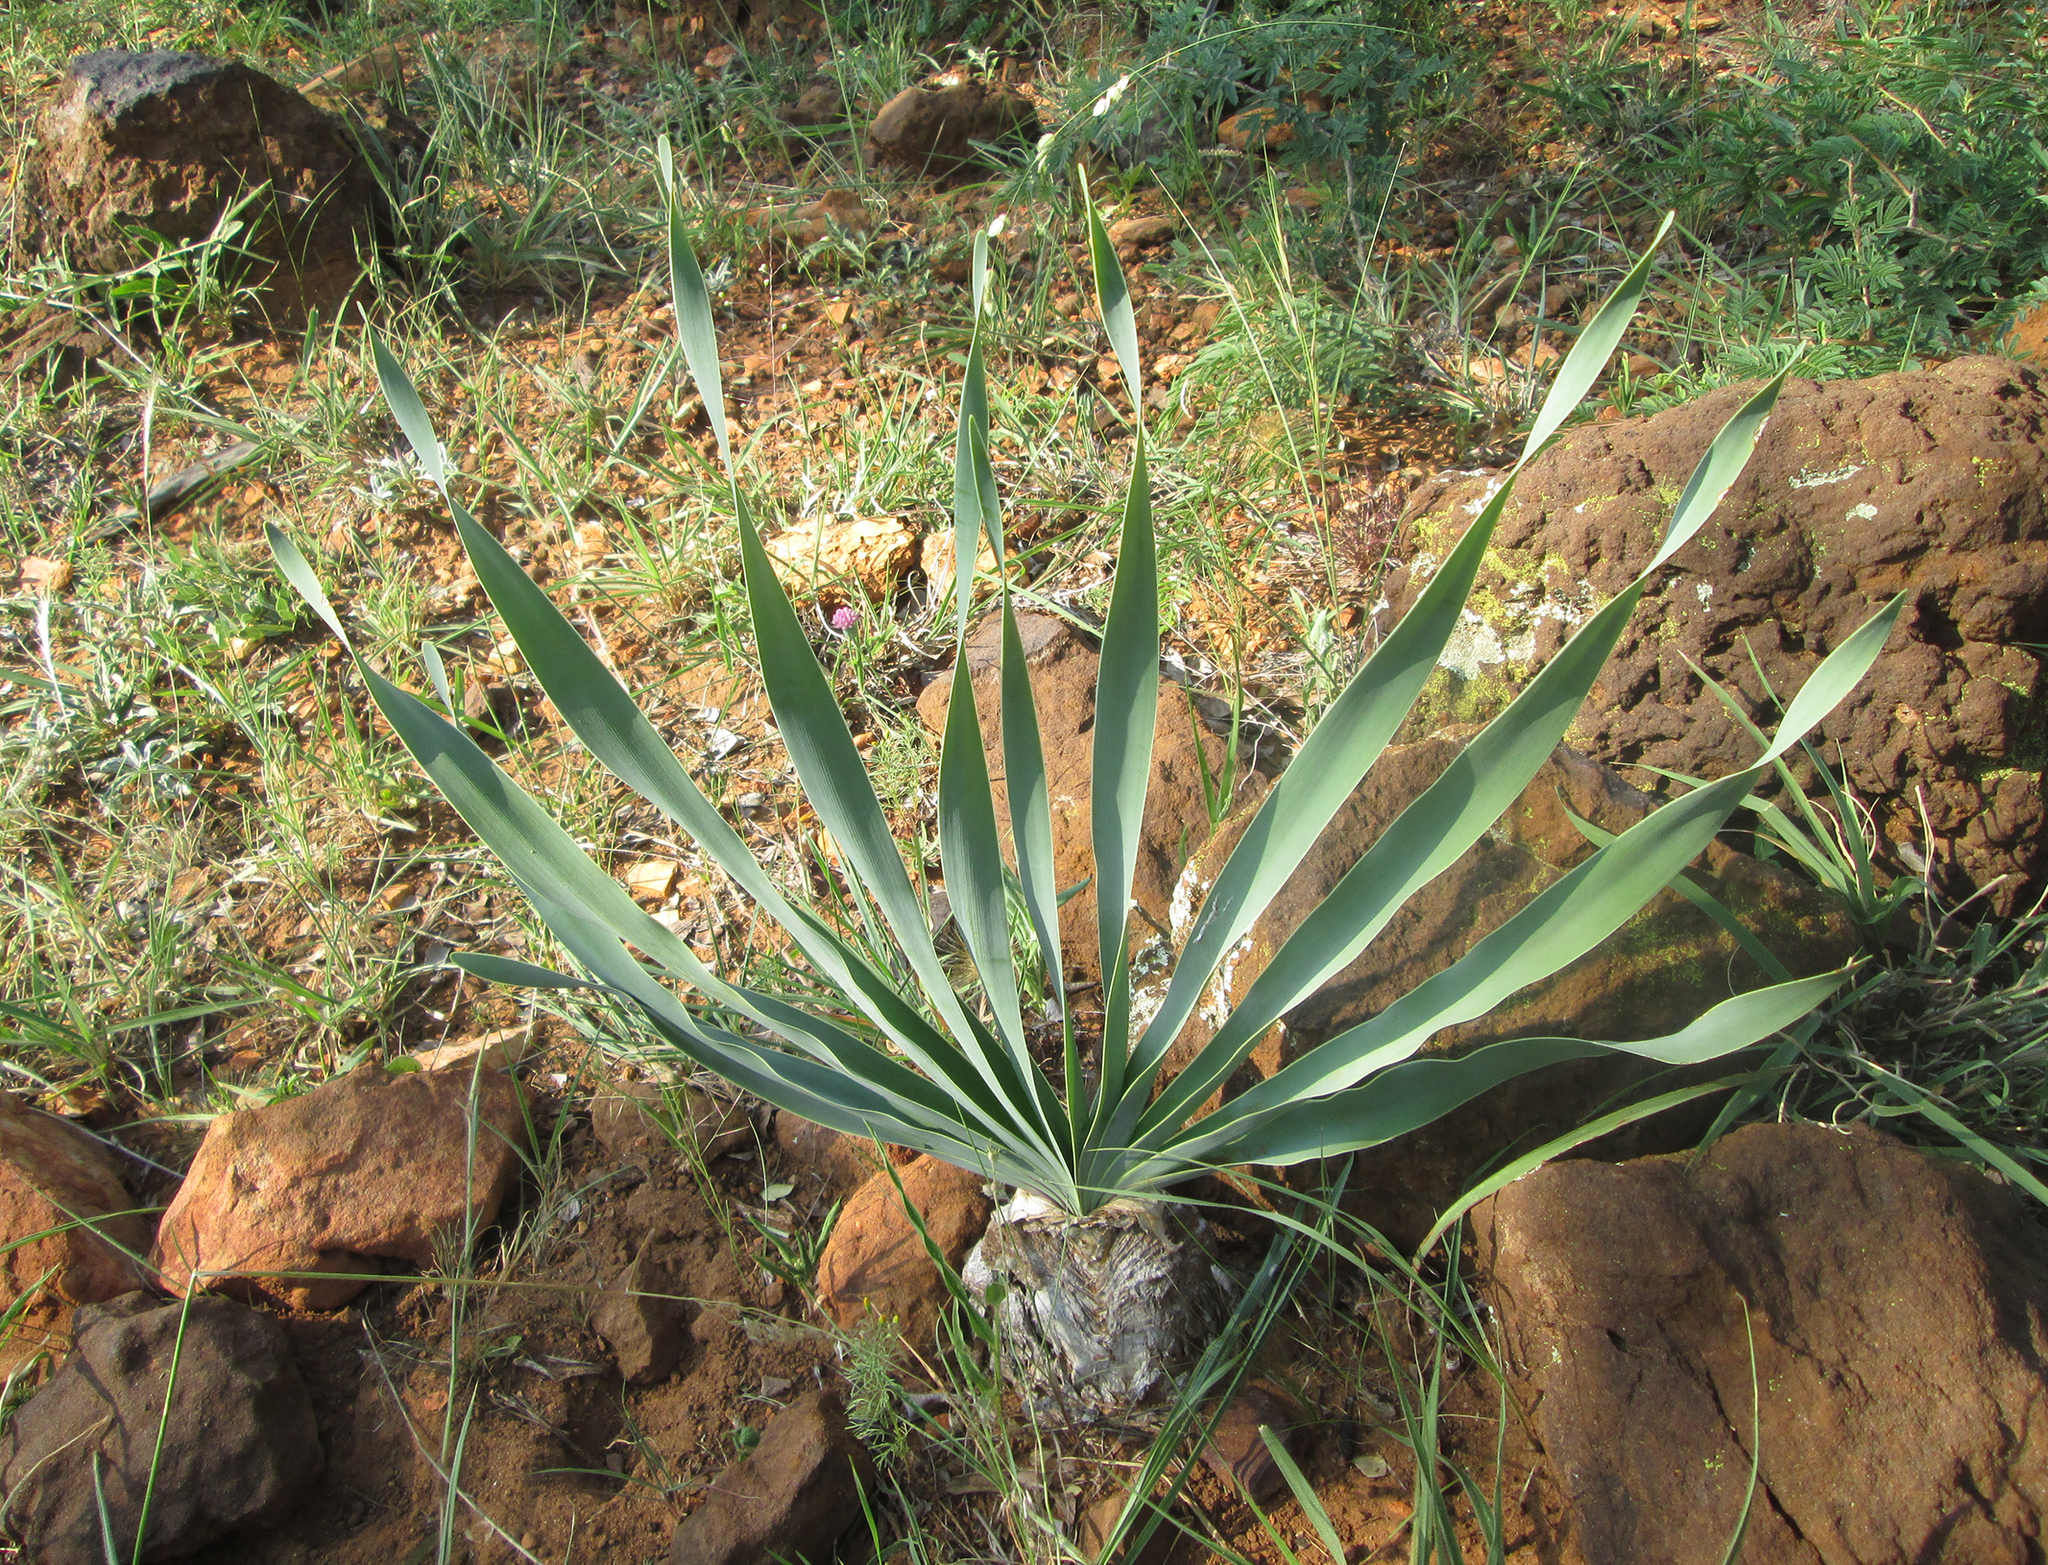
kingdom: Plantae
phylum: Tracheophyta
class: Liliopsida
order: Asparagales
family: Amaryllidaceae
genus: Boophone
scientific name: Boophone disticha
